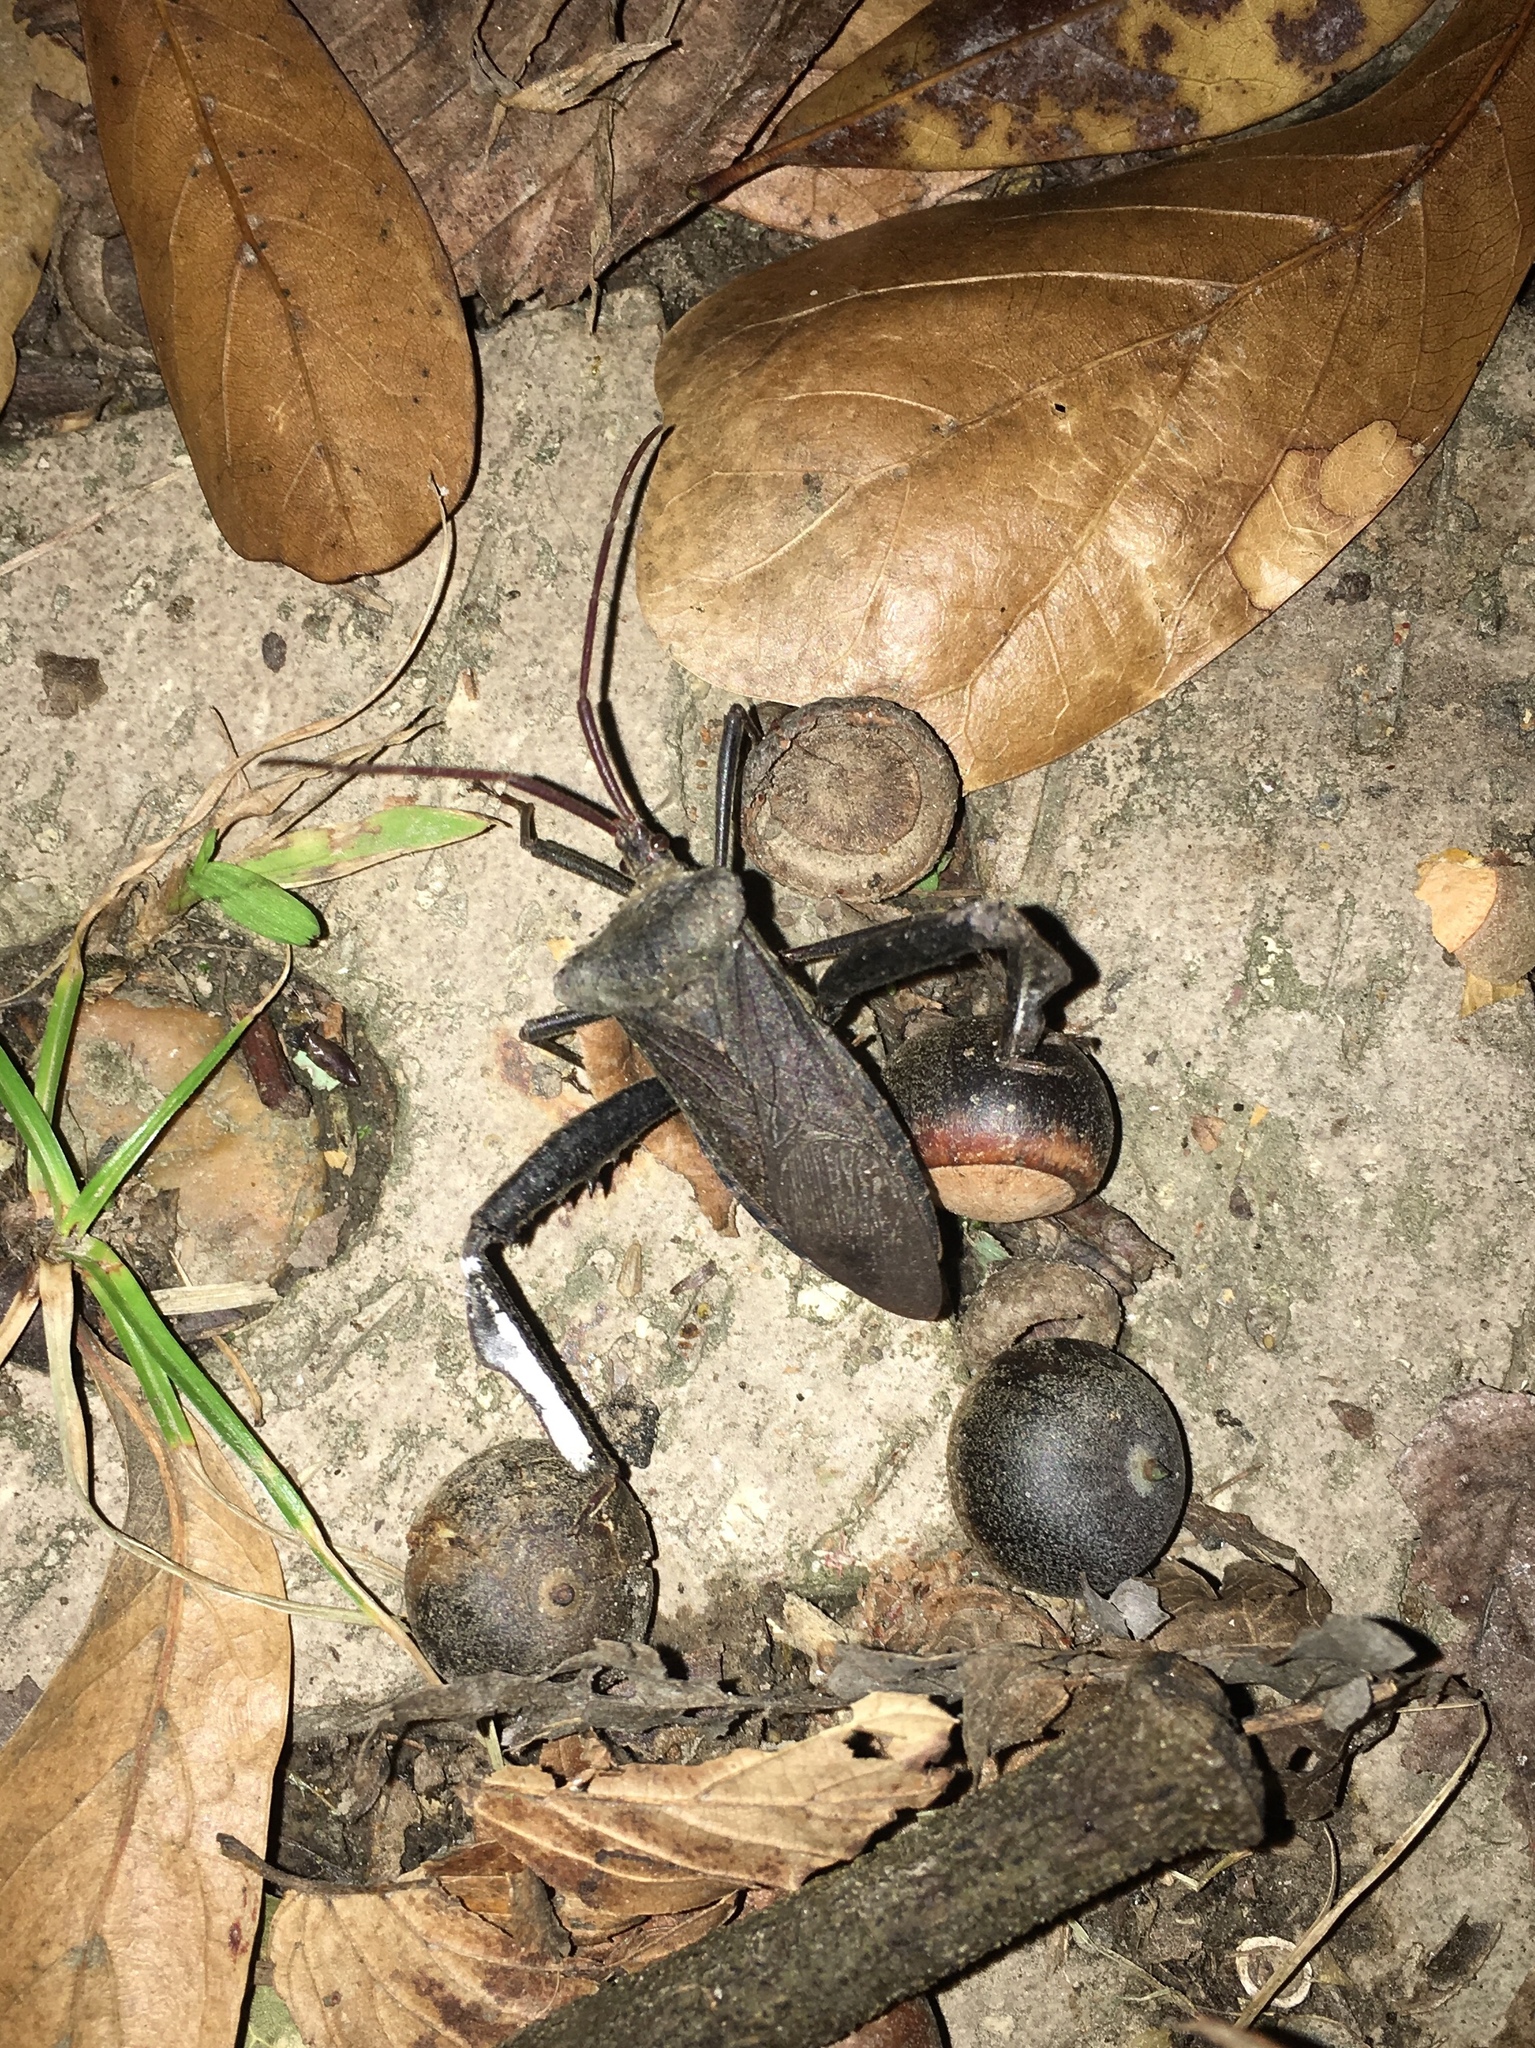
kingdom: Animalia
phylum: Arthropoda
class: Insecta
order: Hemiptera
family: Coreidae
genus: Acanthocephala
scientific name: Acanthocephala declivis
